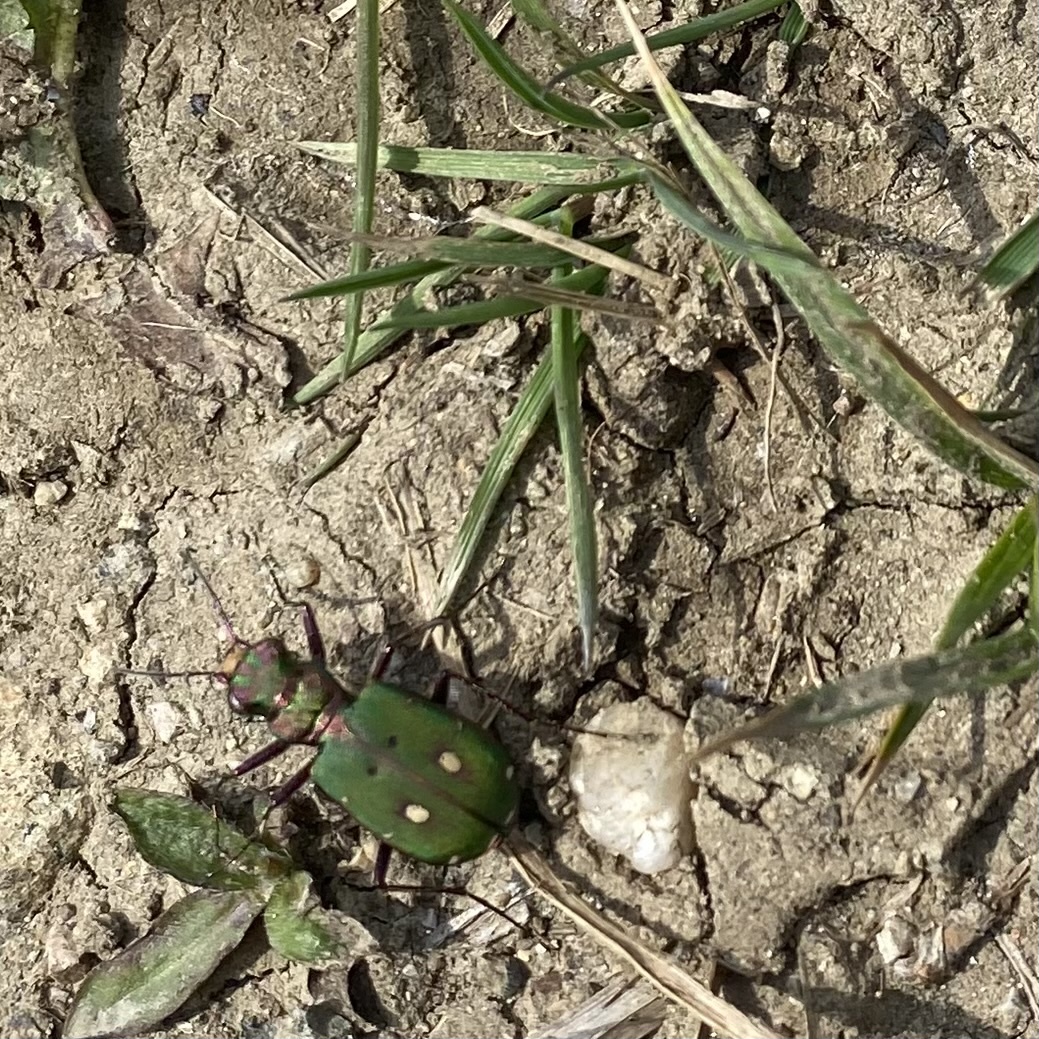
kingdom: Animalia
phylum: Arthropoda
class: Insecta
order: Coleoptera
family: Carabidae
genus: Cicindela
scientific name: Cicindela campestris
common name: Common tiger beetle
